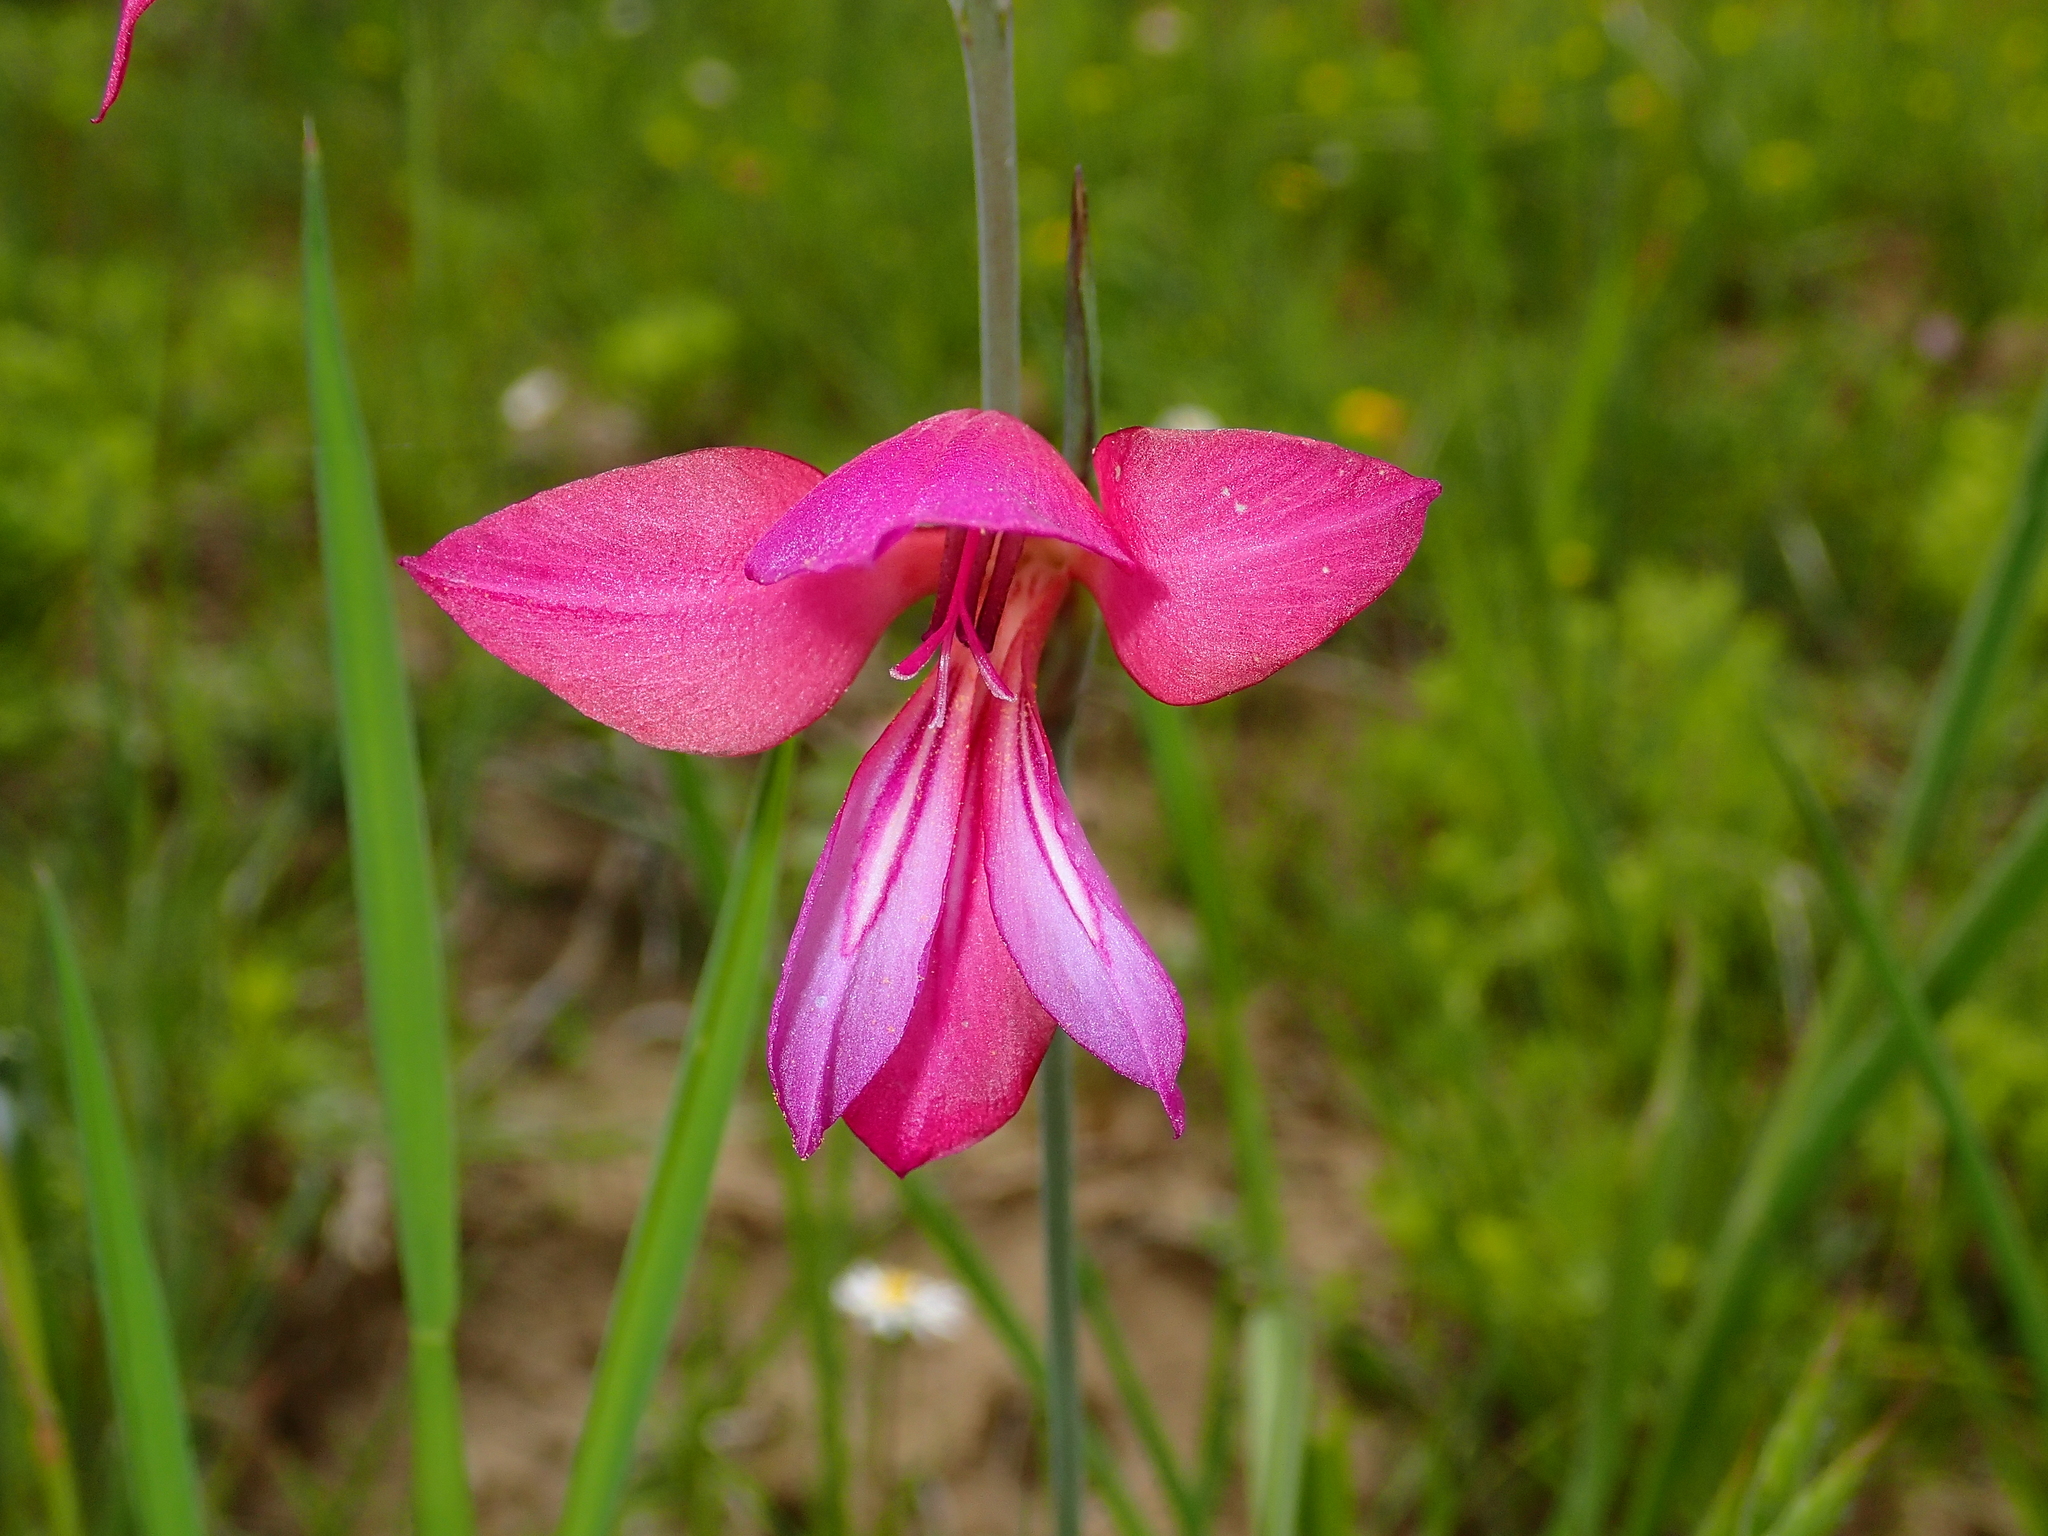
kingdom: Plantae
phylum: Tracheophyta
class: Liliopsida
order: Asparagales
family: Iridaceae
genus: Gladiolus
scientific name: Gladiolus italicus
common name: Field gladiolus
